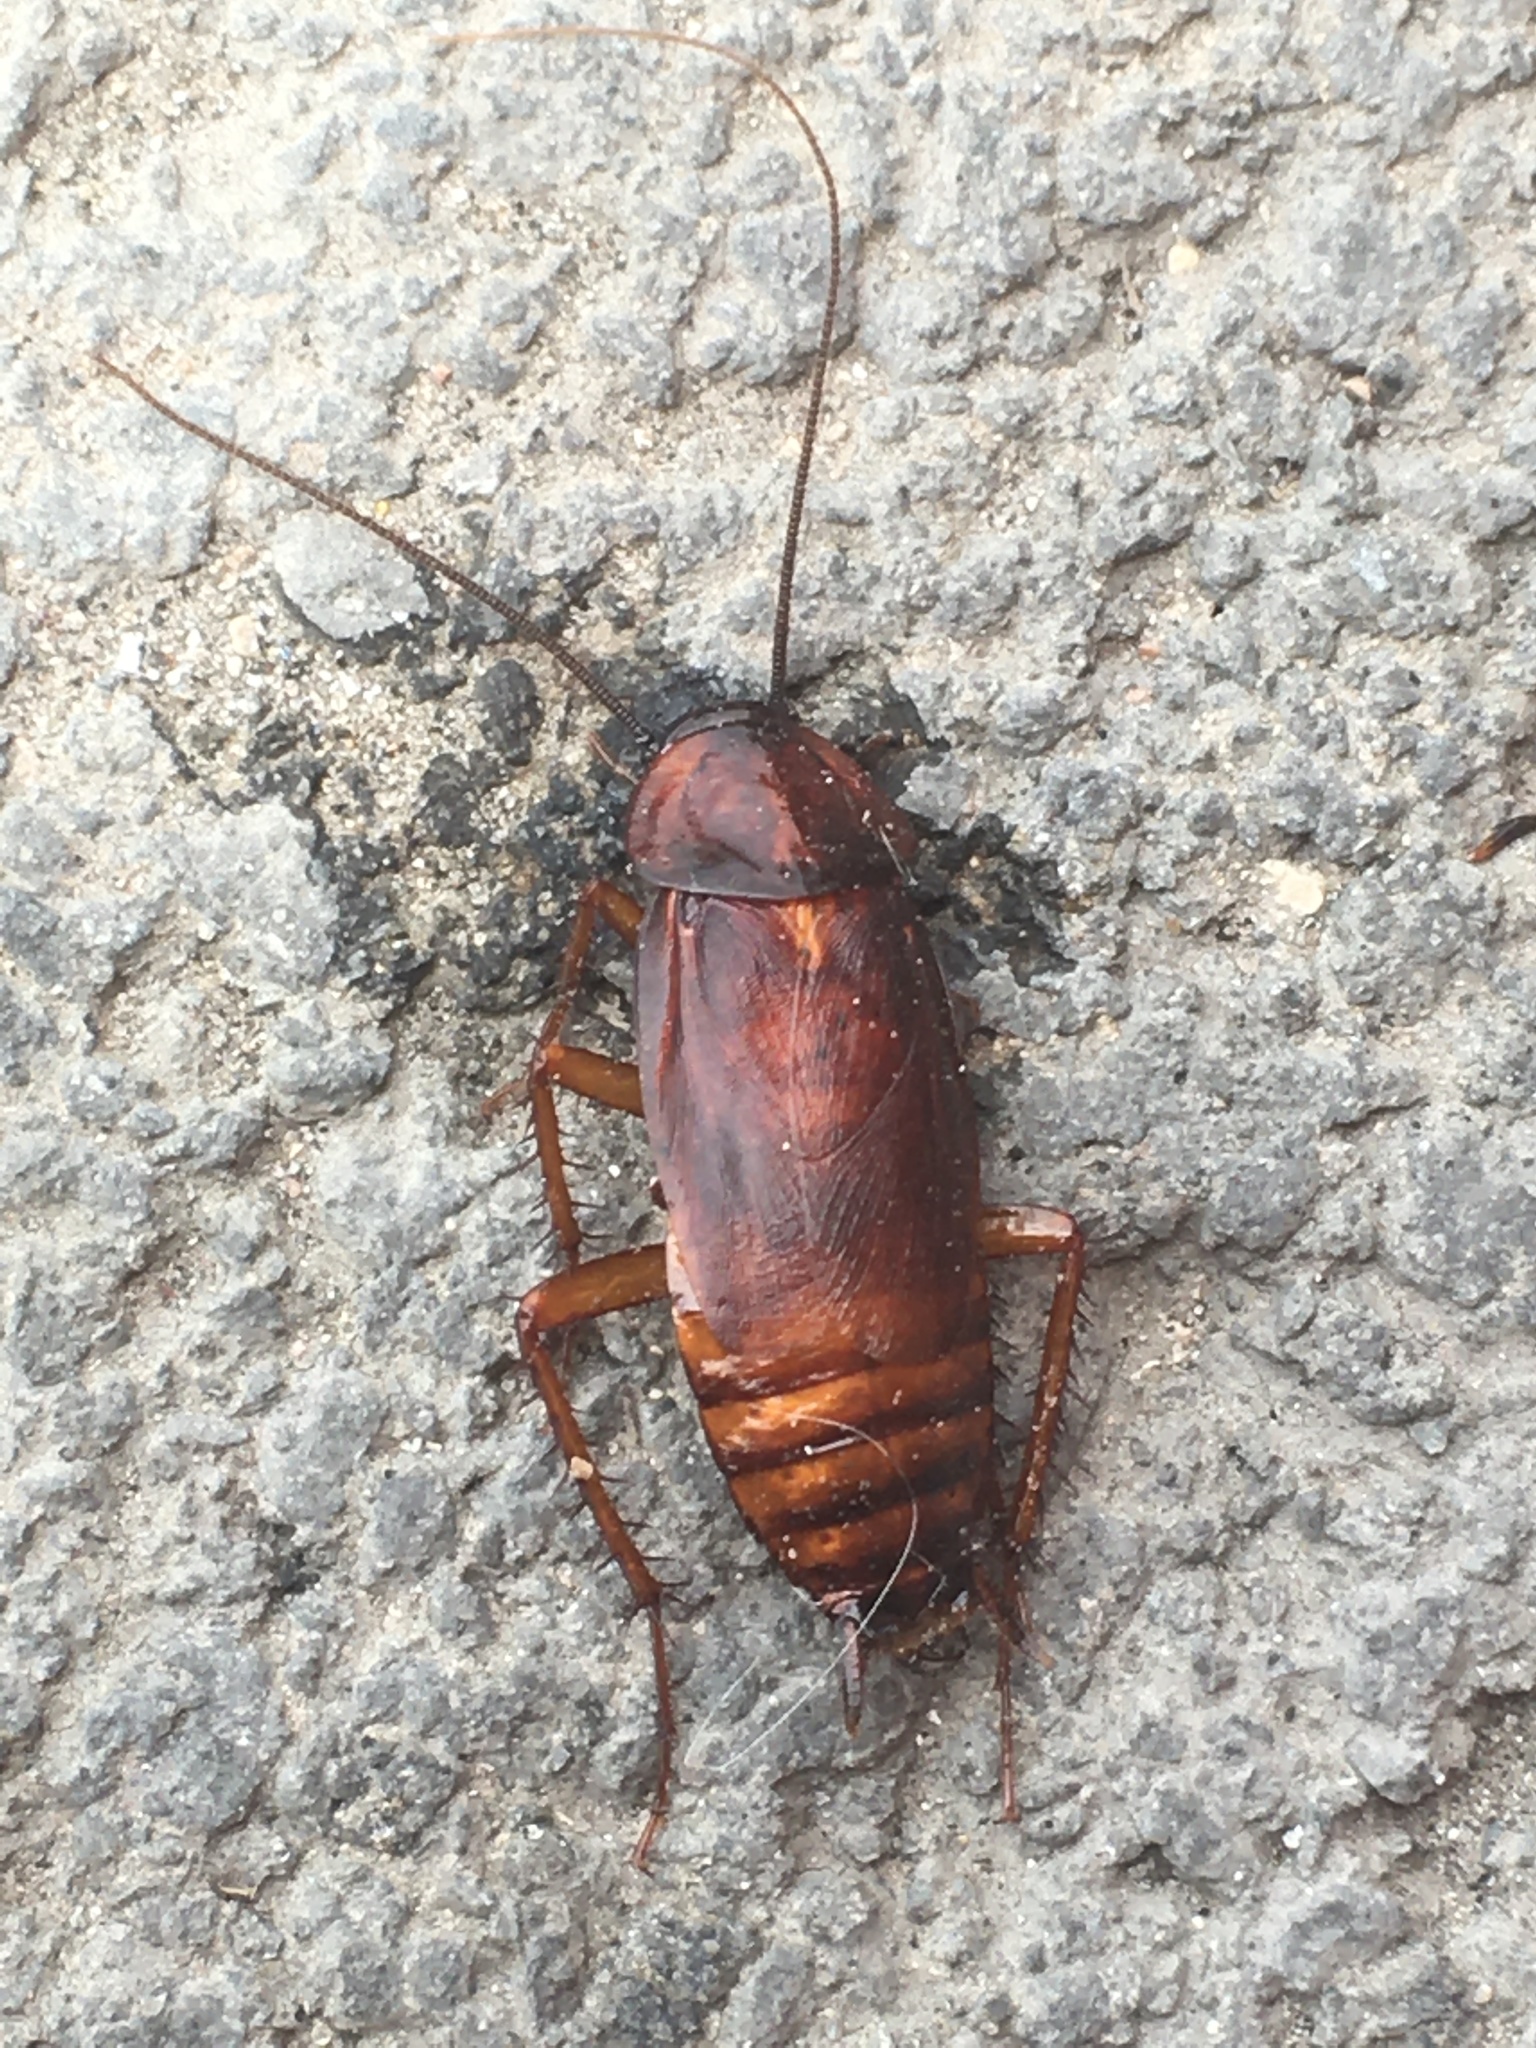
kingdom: Animalia
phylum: Arthropoda
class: Insecta
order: Blattodea
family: Blattidae
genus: Blatta
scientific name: Blatta orientalis
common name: Oriental cockroach
